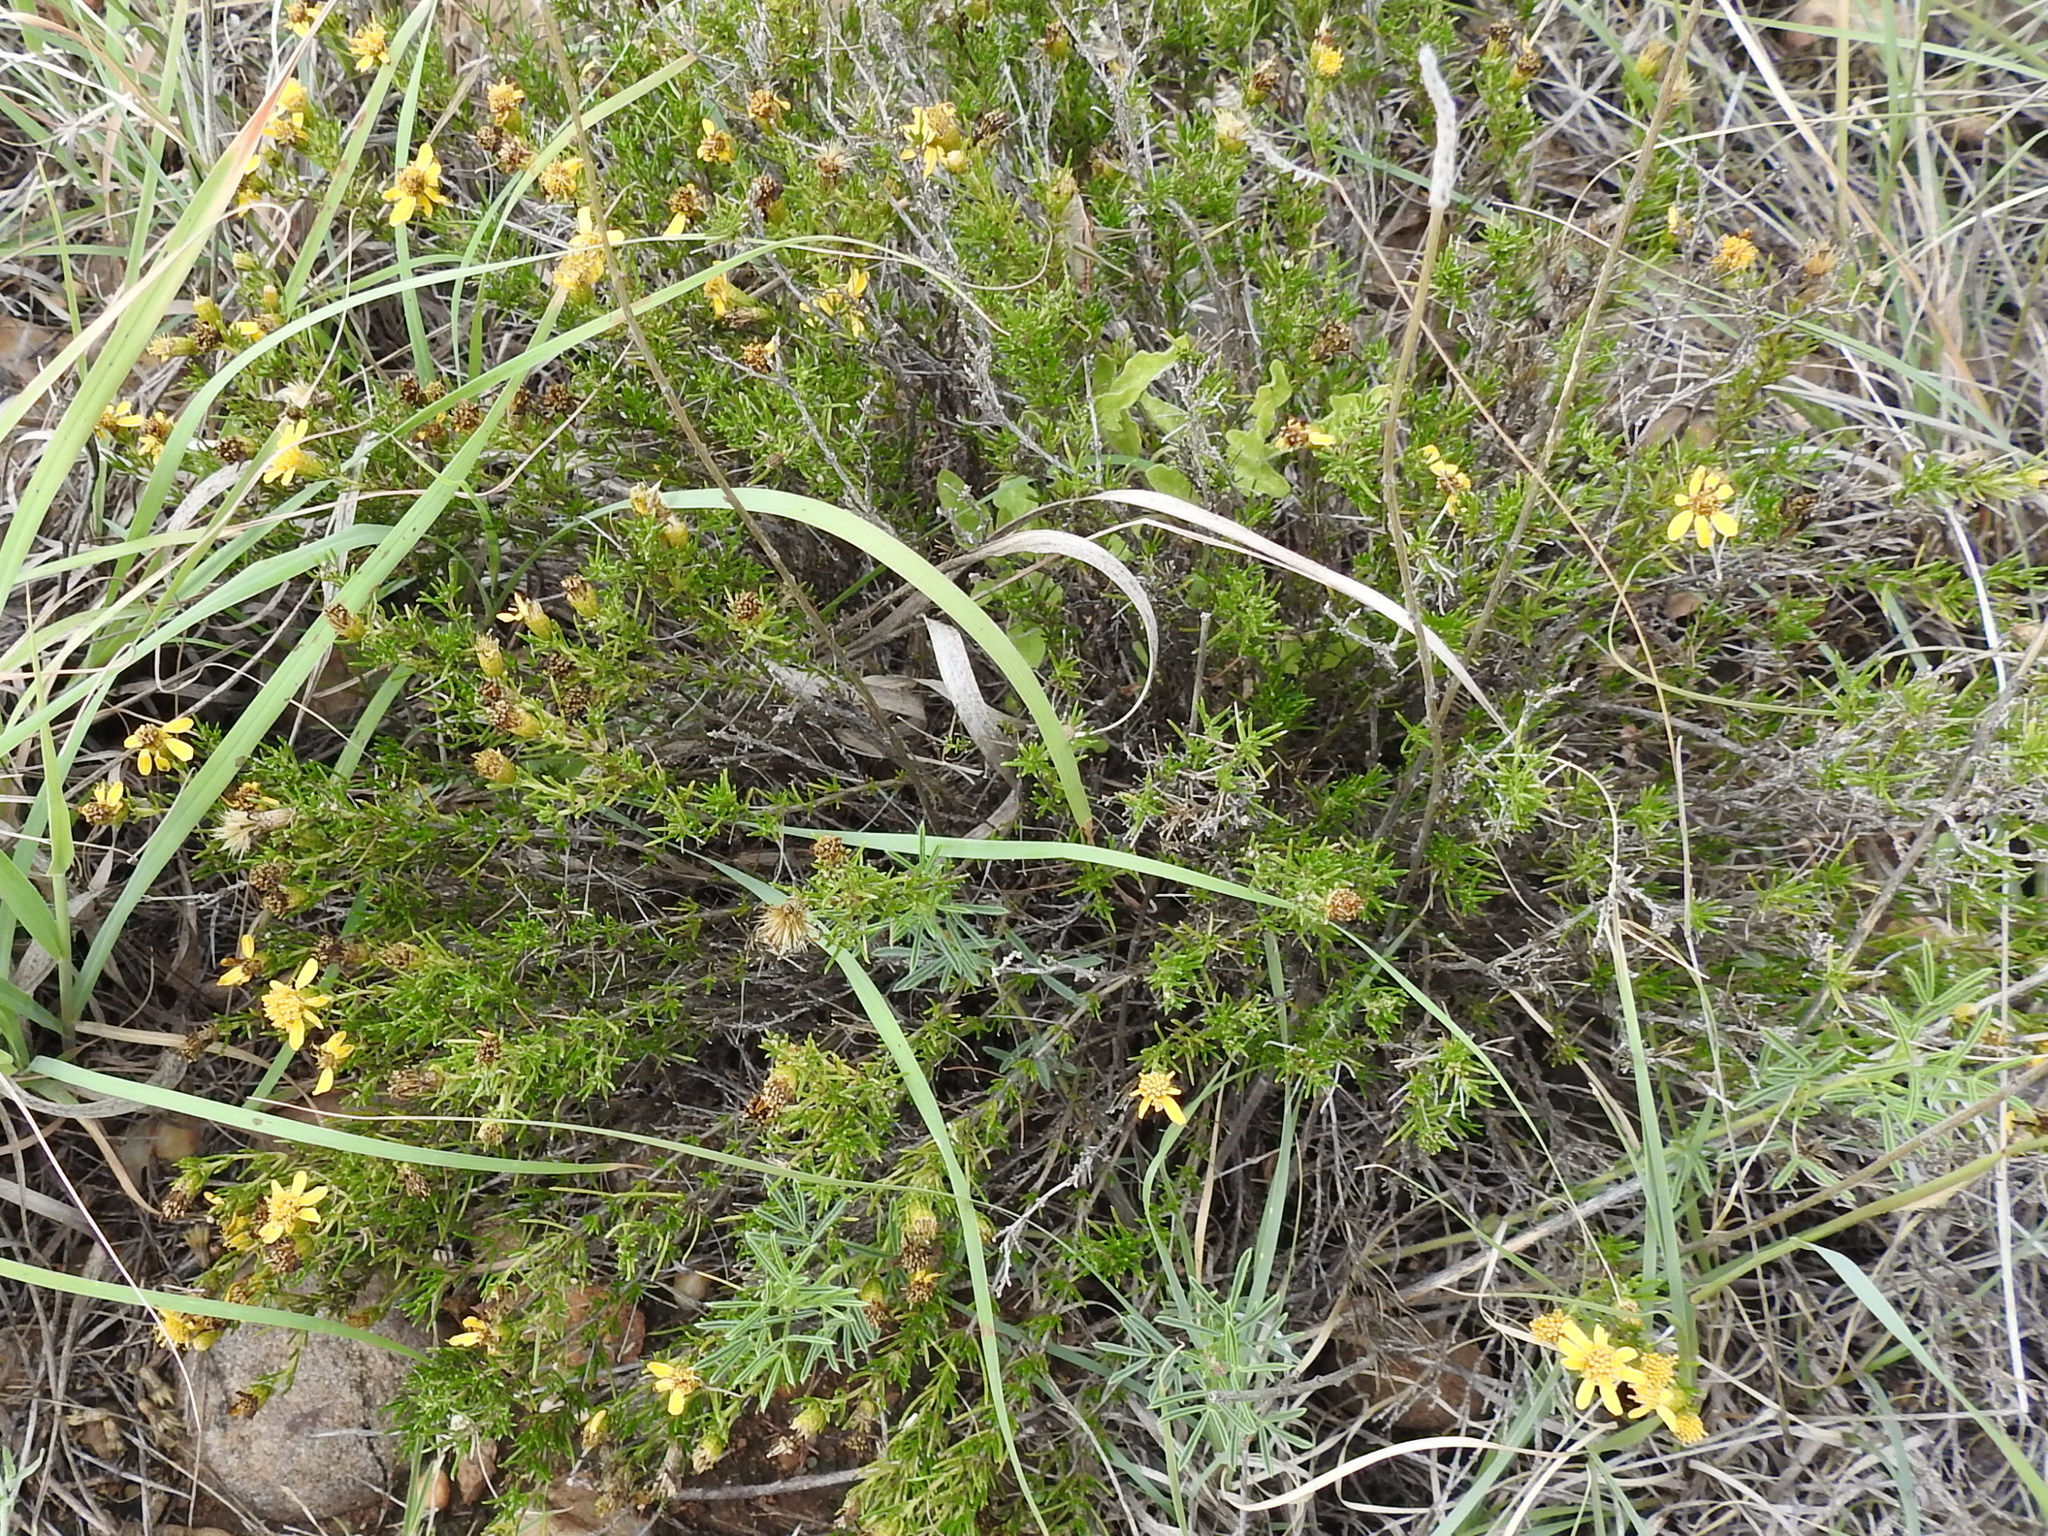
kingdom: Plantae
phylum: Tracheophyta
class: Magnoliopsida
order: Asterales
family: Asteraceae
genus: Thymophylla
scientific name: Thymophylla acerosa
